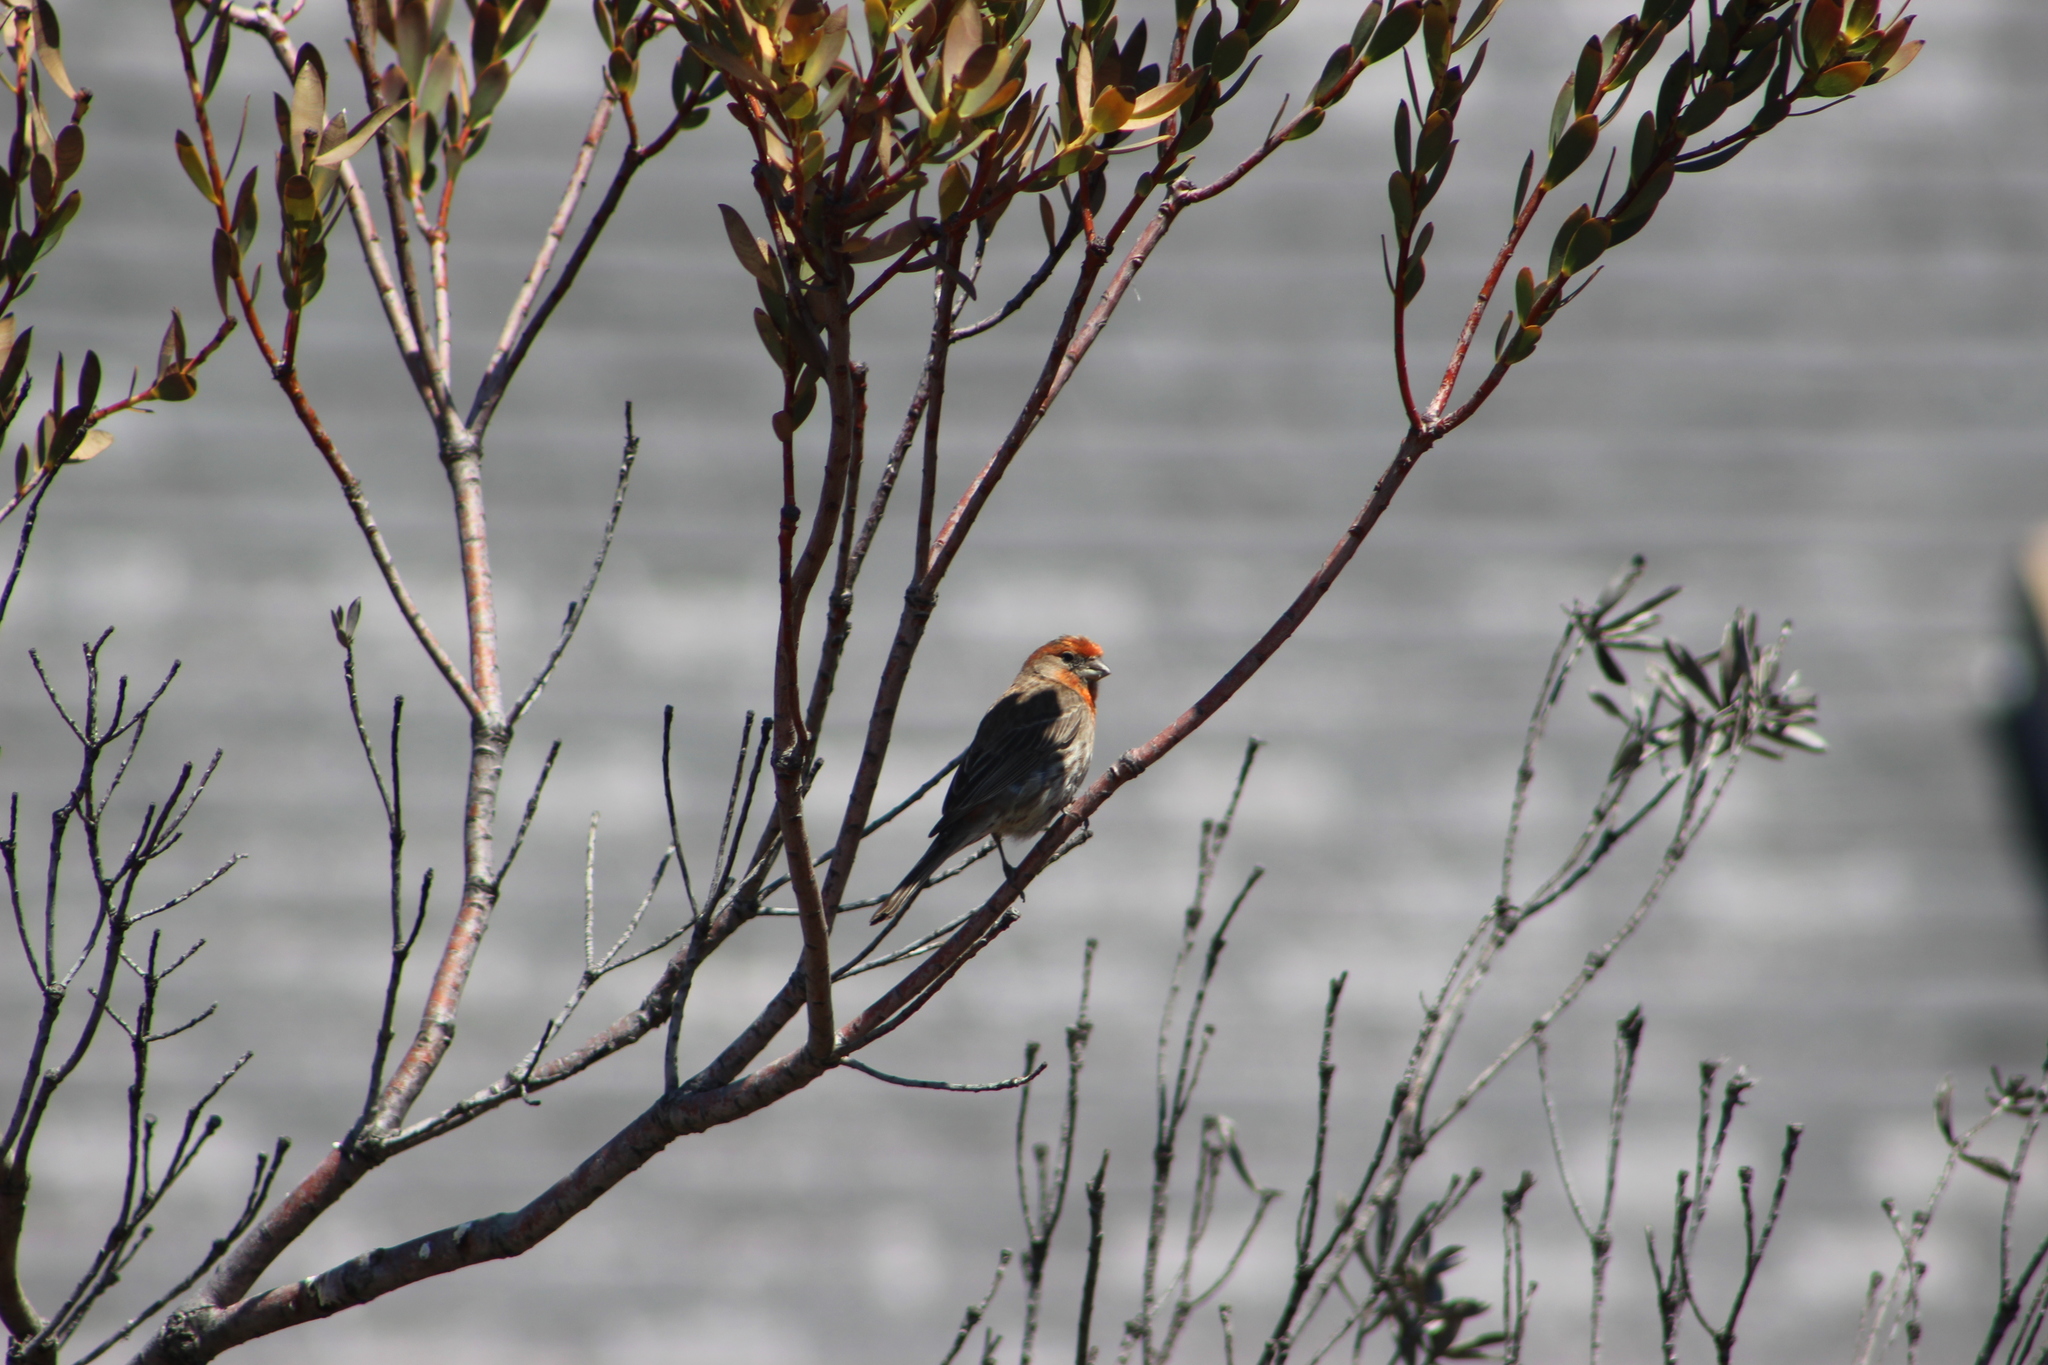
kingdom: Animalia
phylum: Chordata
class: Aves
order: Passeriformes
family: Fringillidae
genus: Haemorhous
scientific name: Haemorhous mexicanus
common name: House finch
